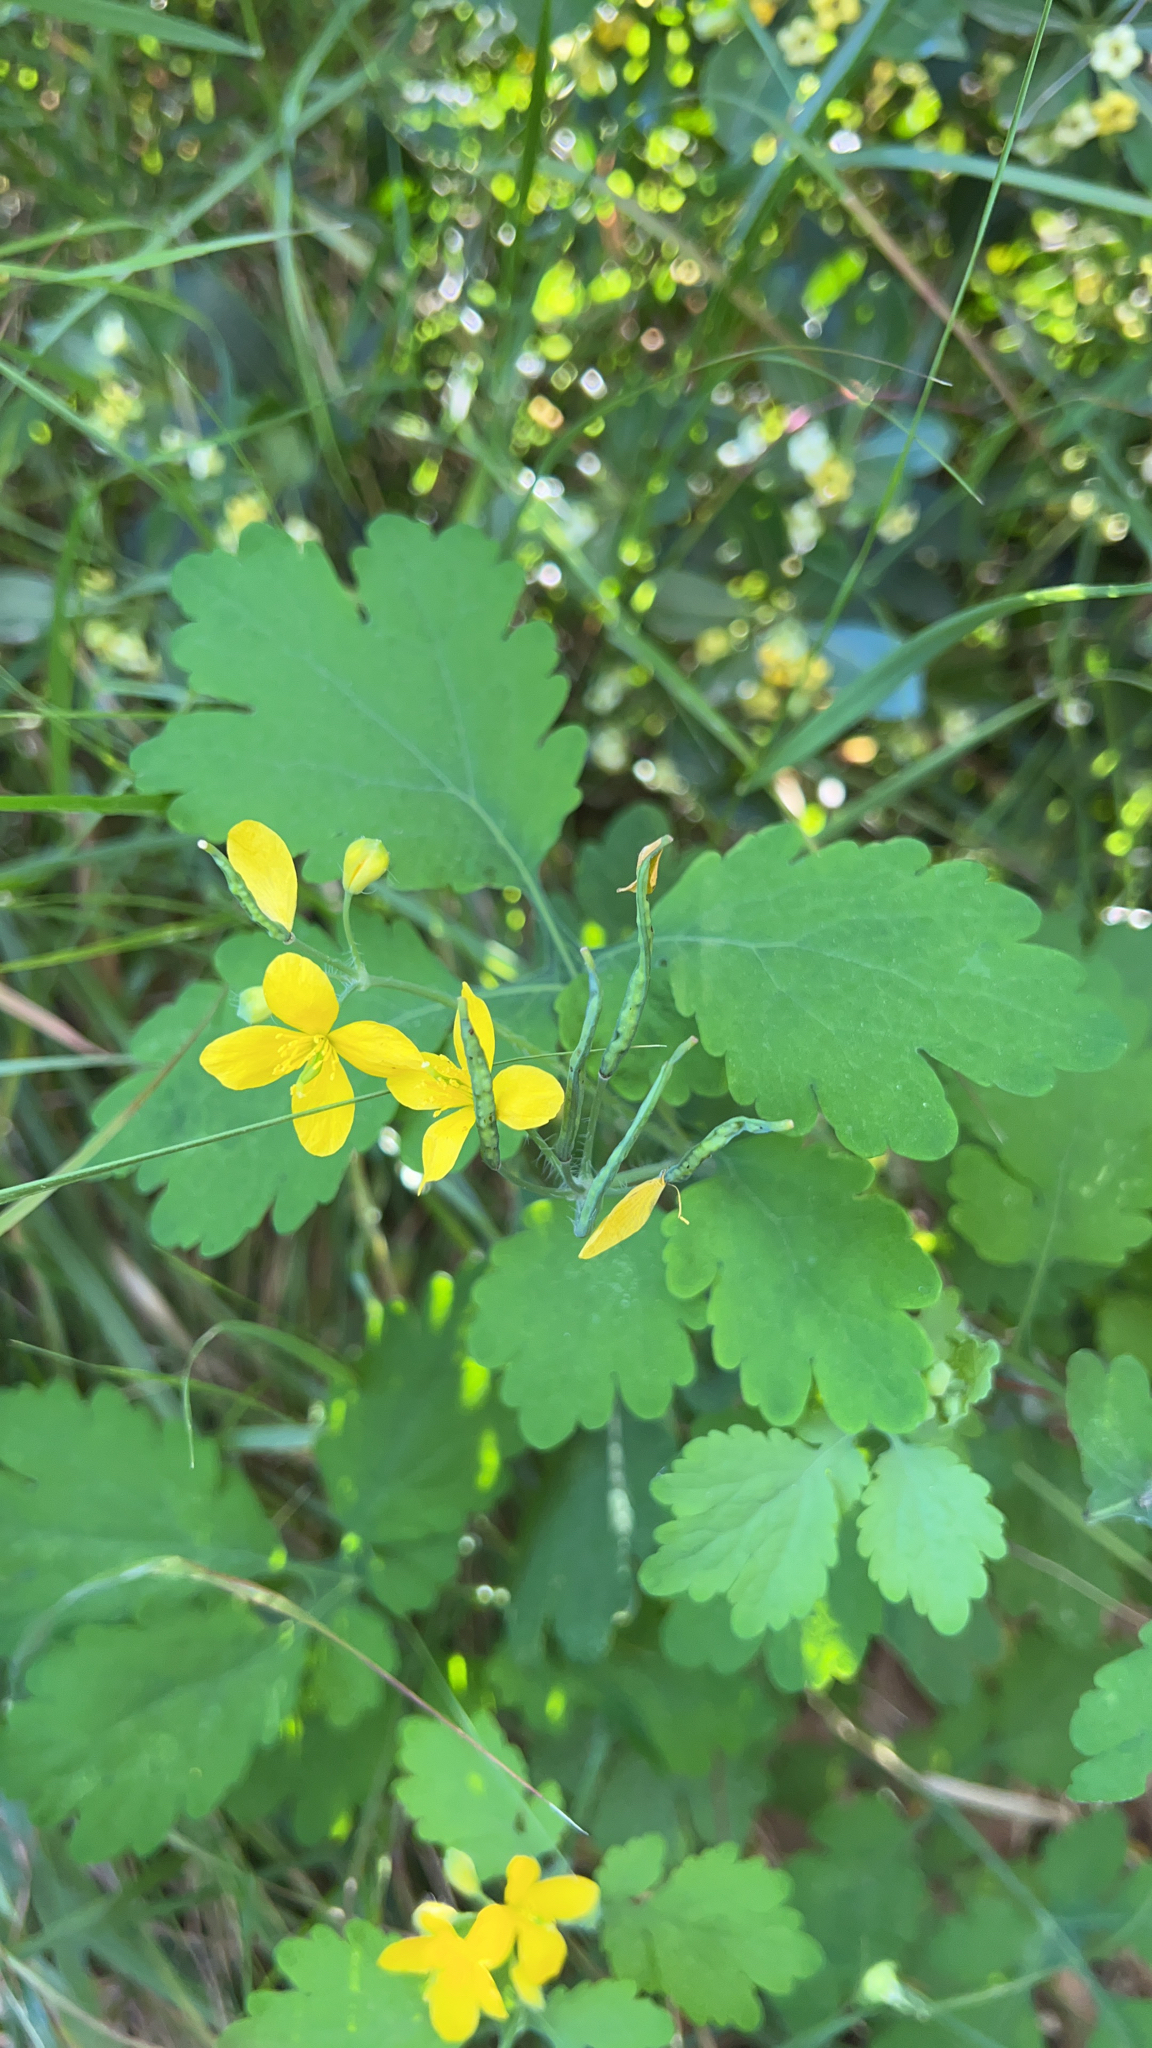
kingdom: Plantae
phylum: Tracheophyta
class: Magnoliopsida
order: Ranunculales
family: Papaveraceae
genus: Chelidonium
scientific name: Chelidonium majus
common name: Greater celandine
